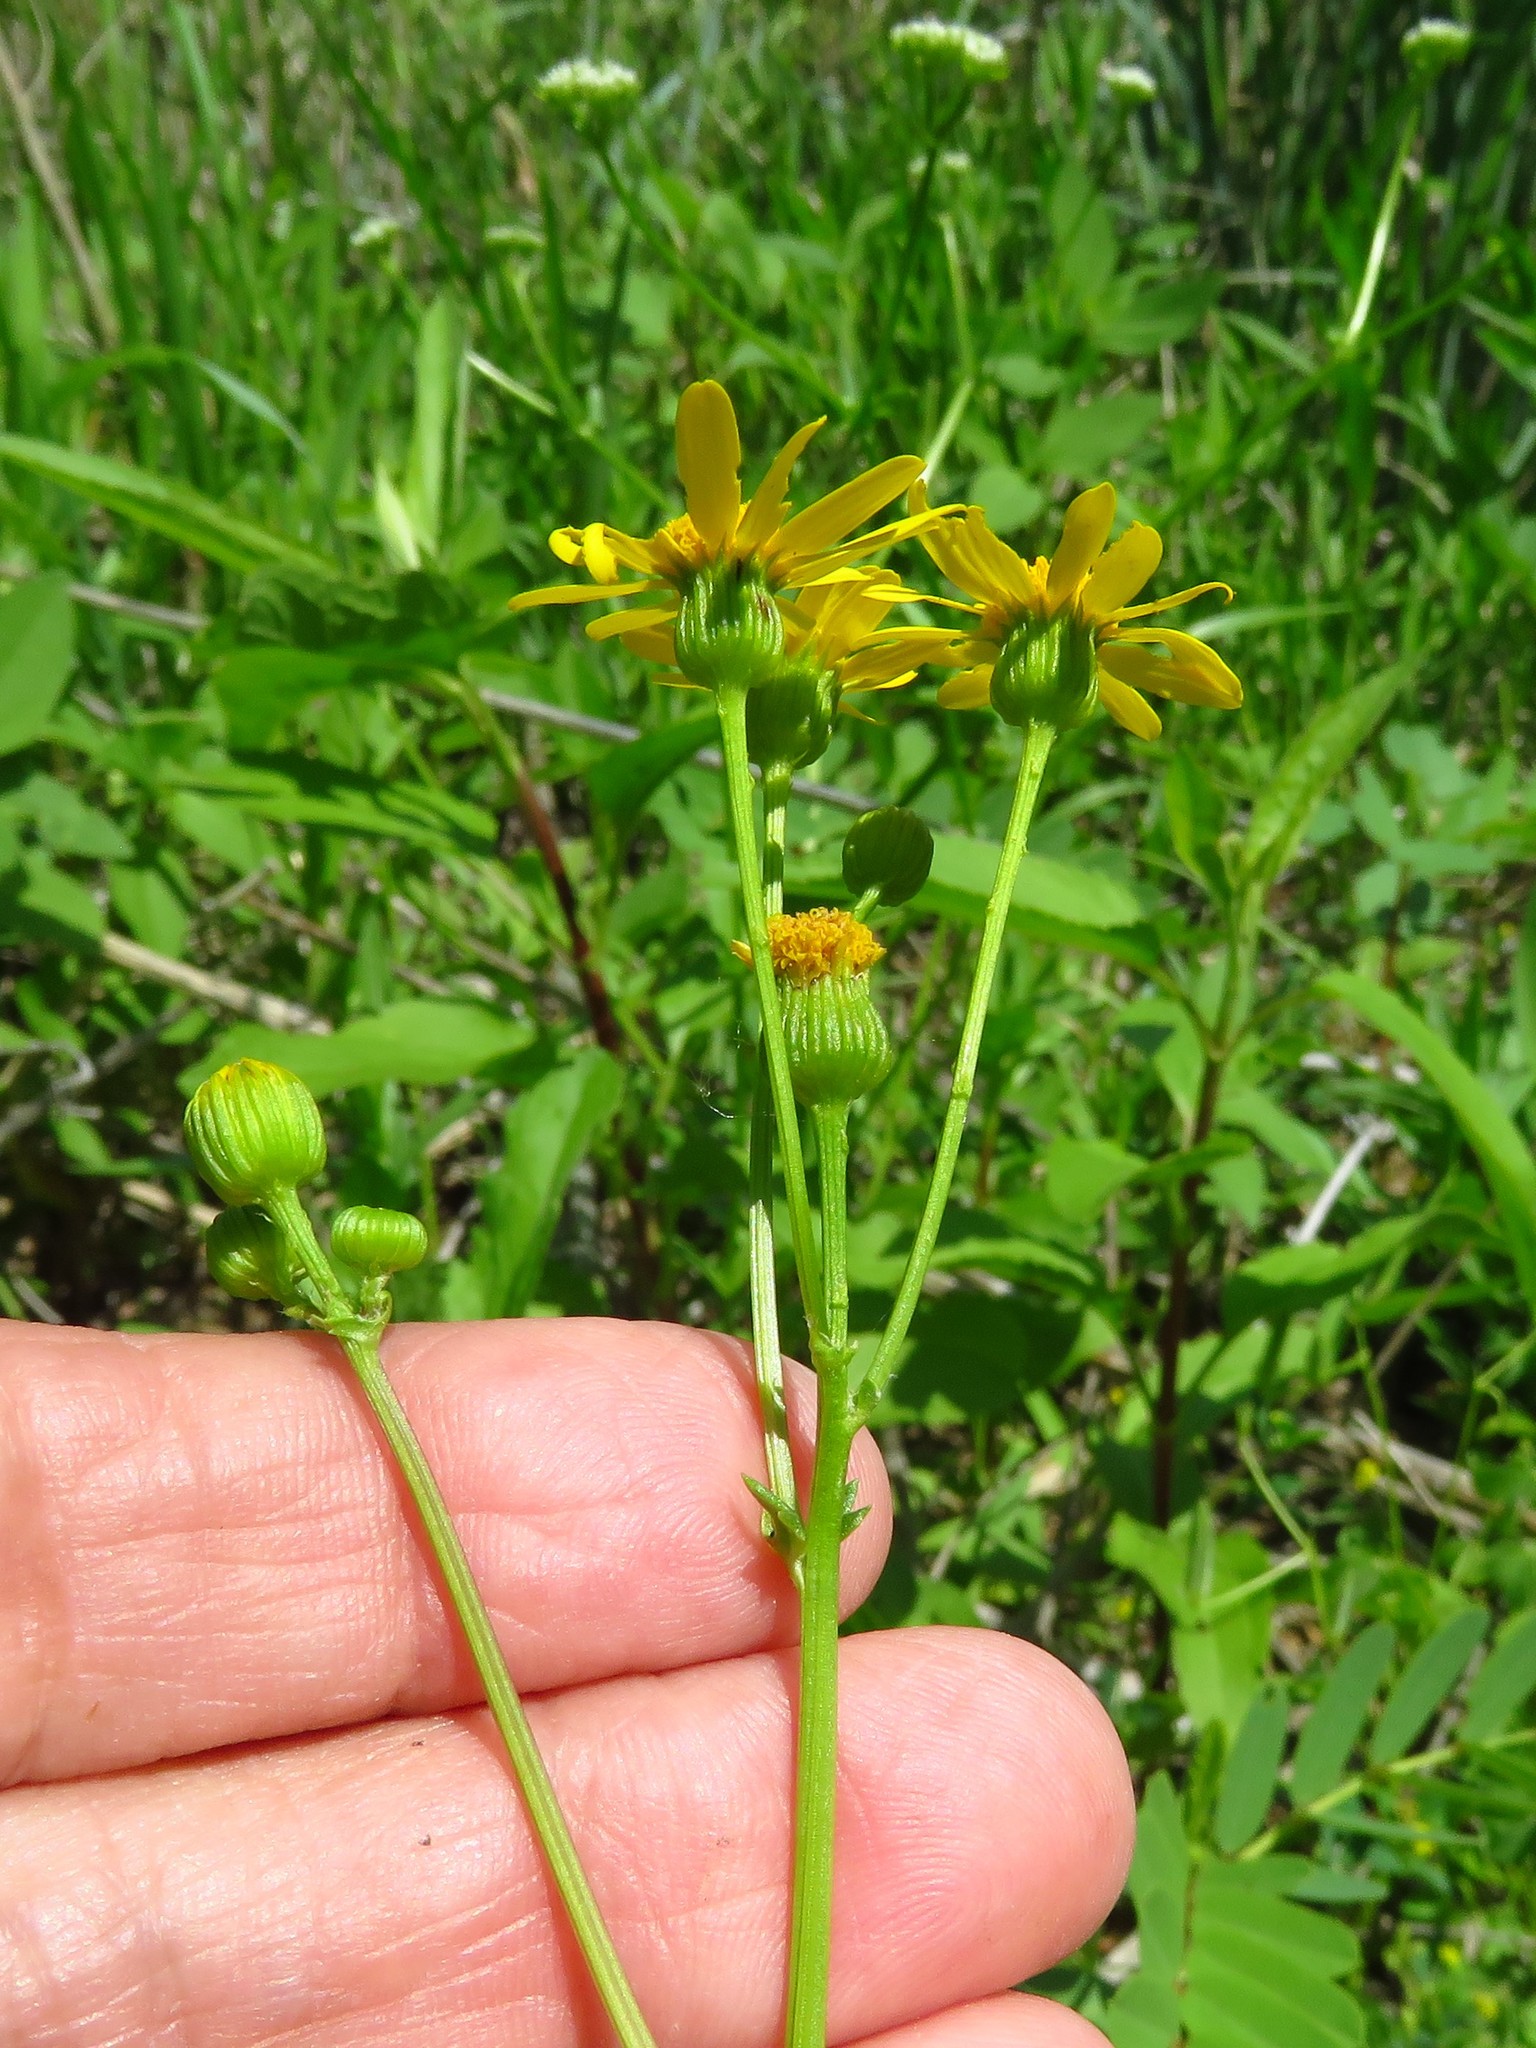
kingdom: Plantae
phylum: Tracheophyta
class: Magnoliopsida
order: Asterales
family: Asteraceae
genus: Packera
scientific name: Packera tampicana
